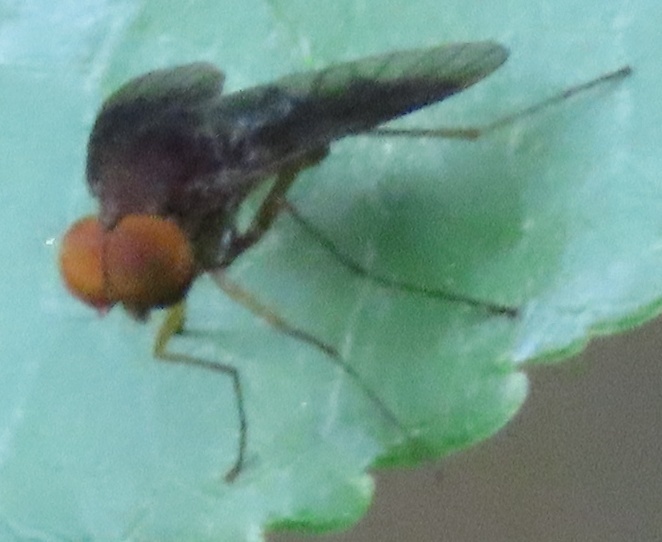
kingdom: Animalia
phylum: Arthropoda
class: Insecta
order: Diptera
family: Rhagionidae
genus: Chrysopilus
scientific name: Chrysopilus quadratus
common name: Quadrate snipe fly
